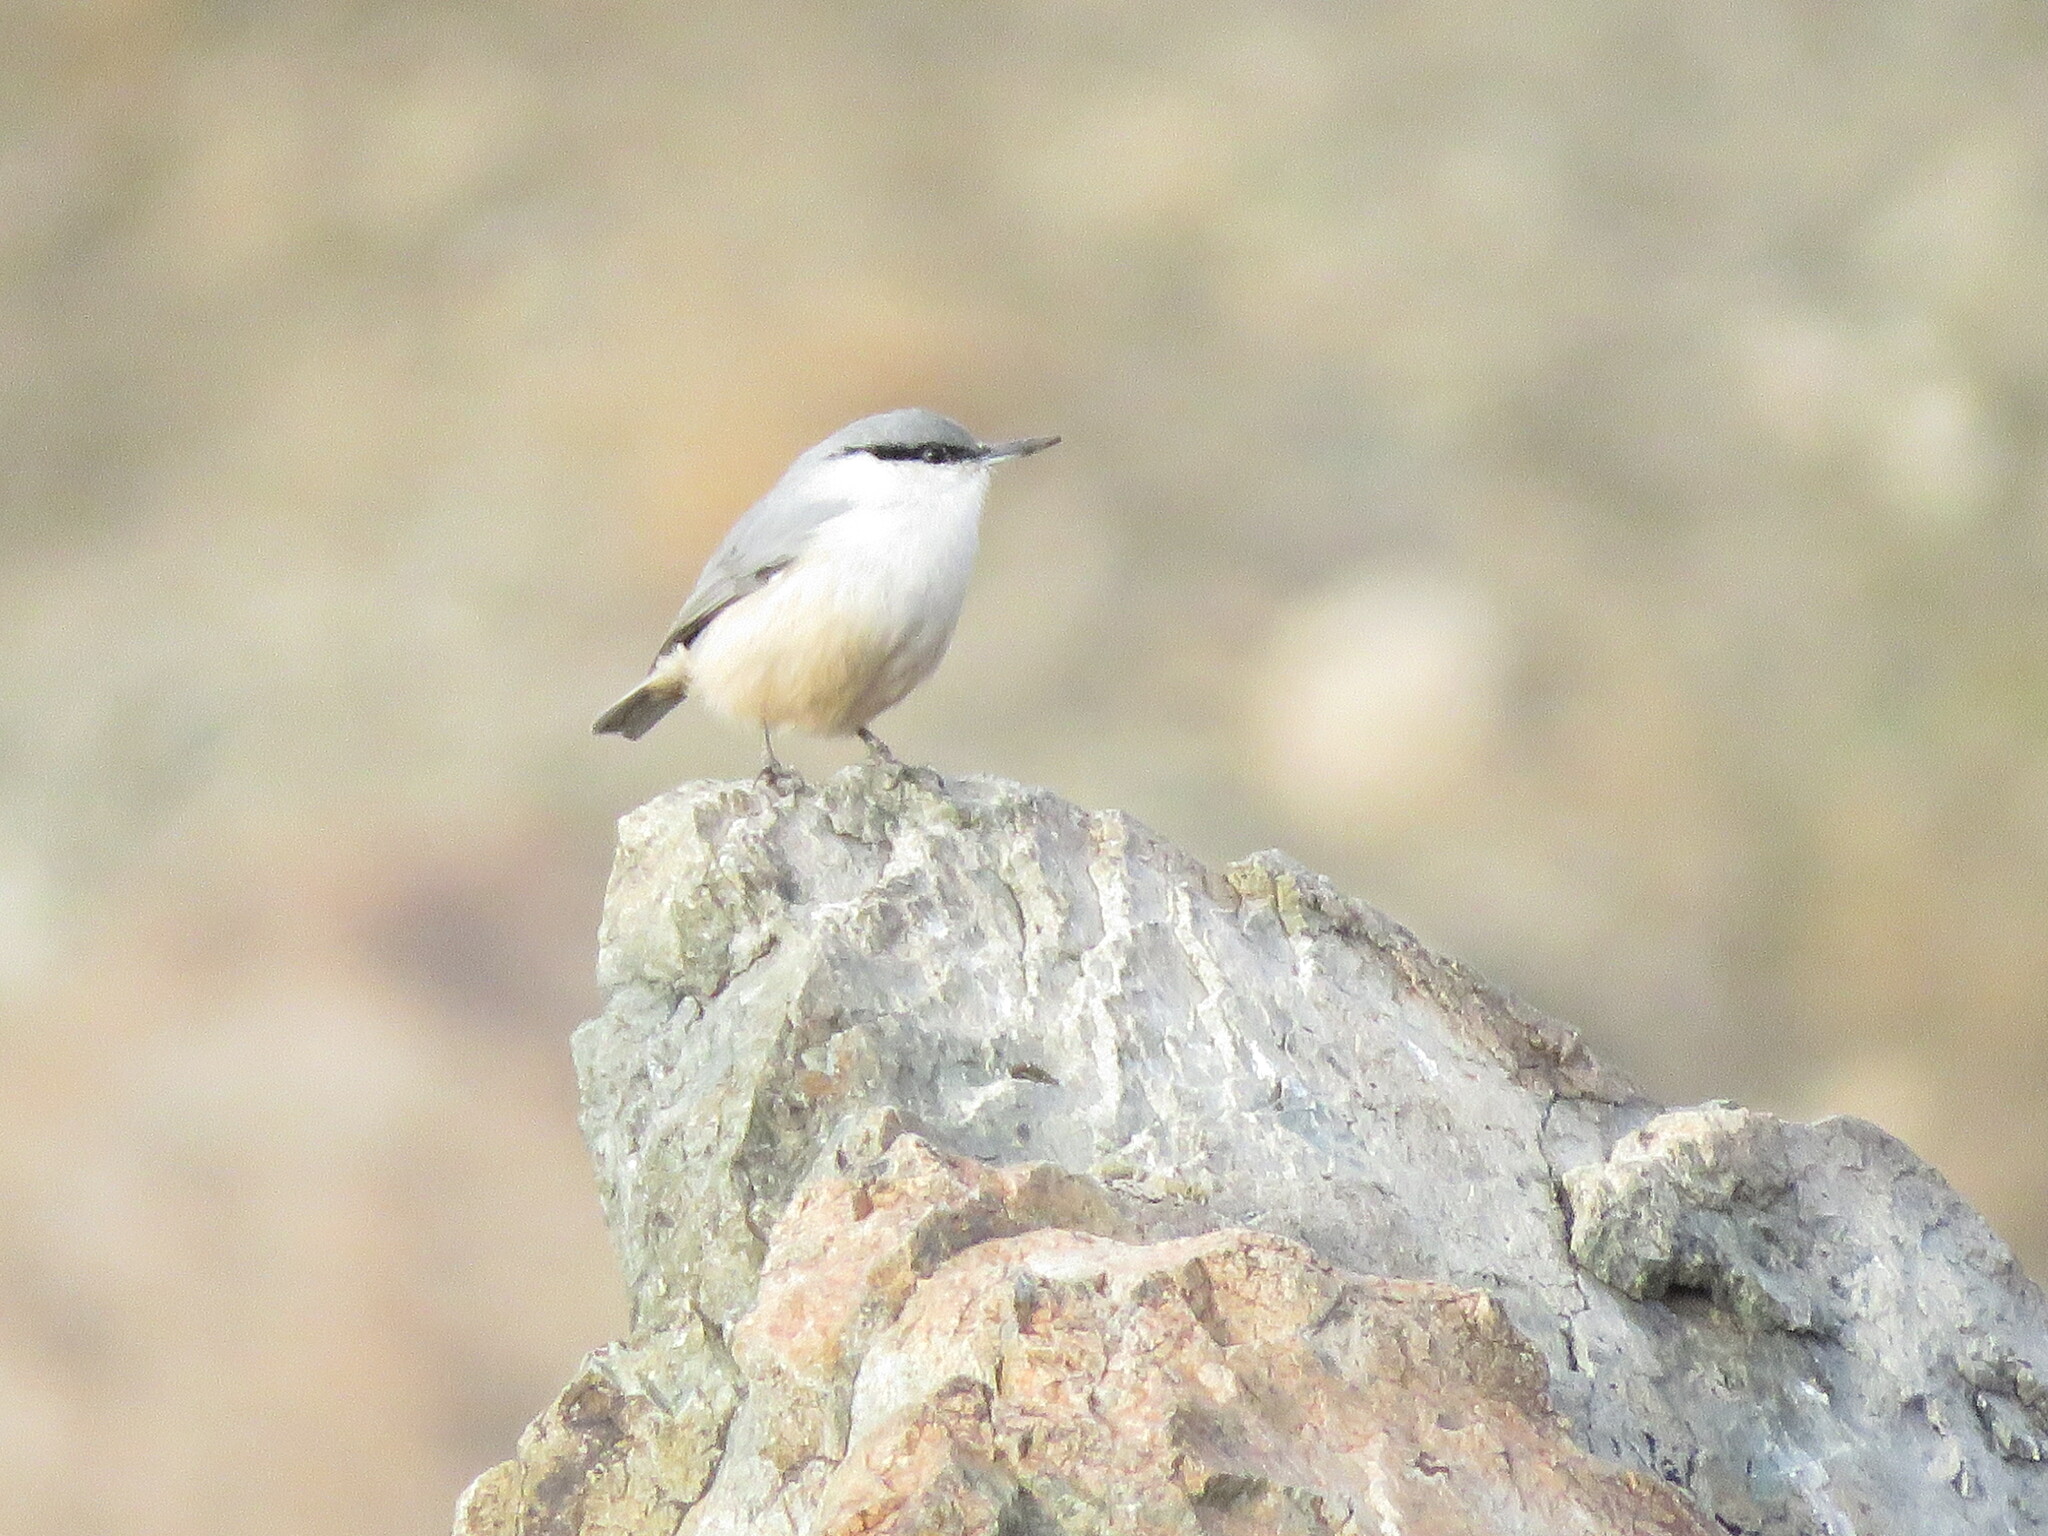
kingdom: Animalia
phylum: Chordata
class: Aves
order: Passeriformes
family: Sittidae
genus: Sitta
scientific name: Sitta neumayer
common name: Western rock nuthatch
